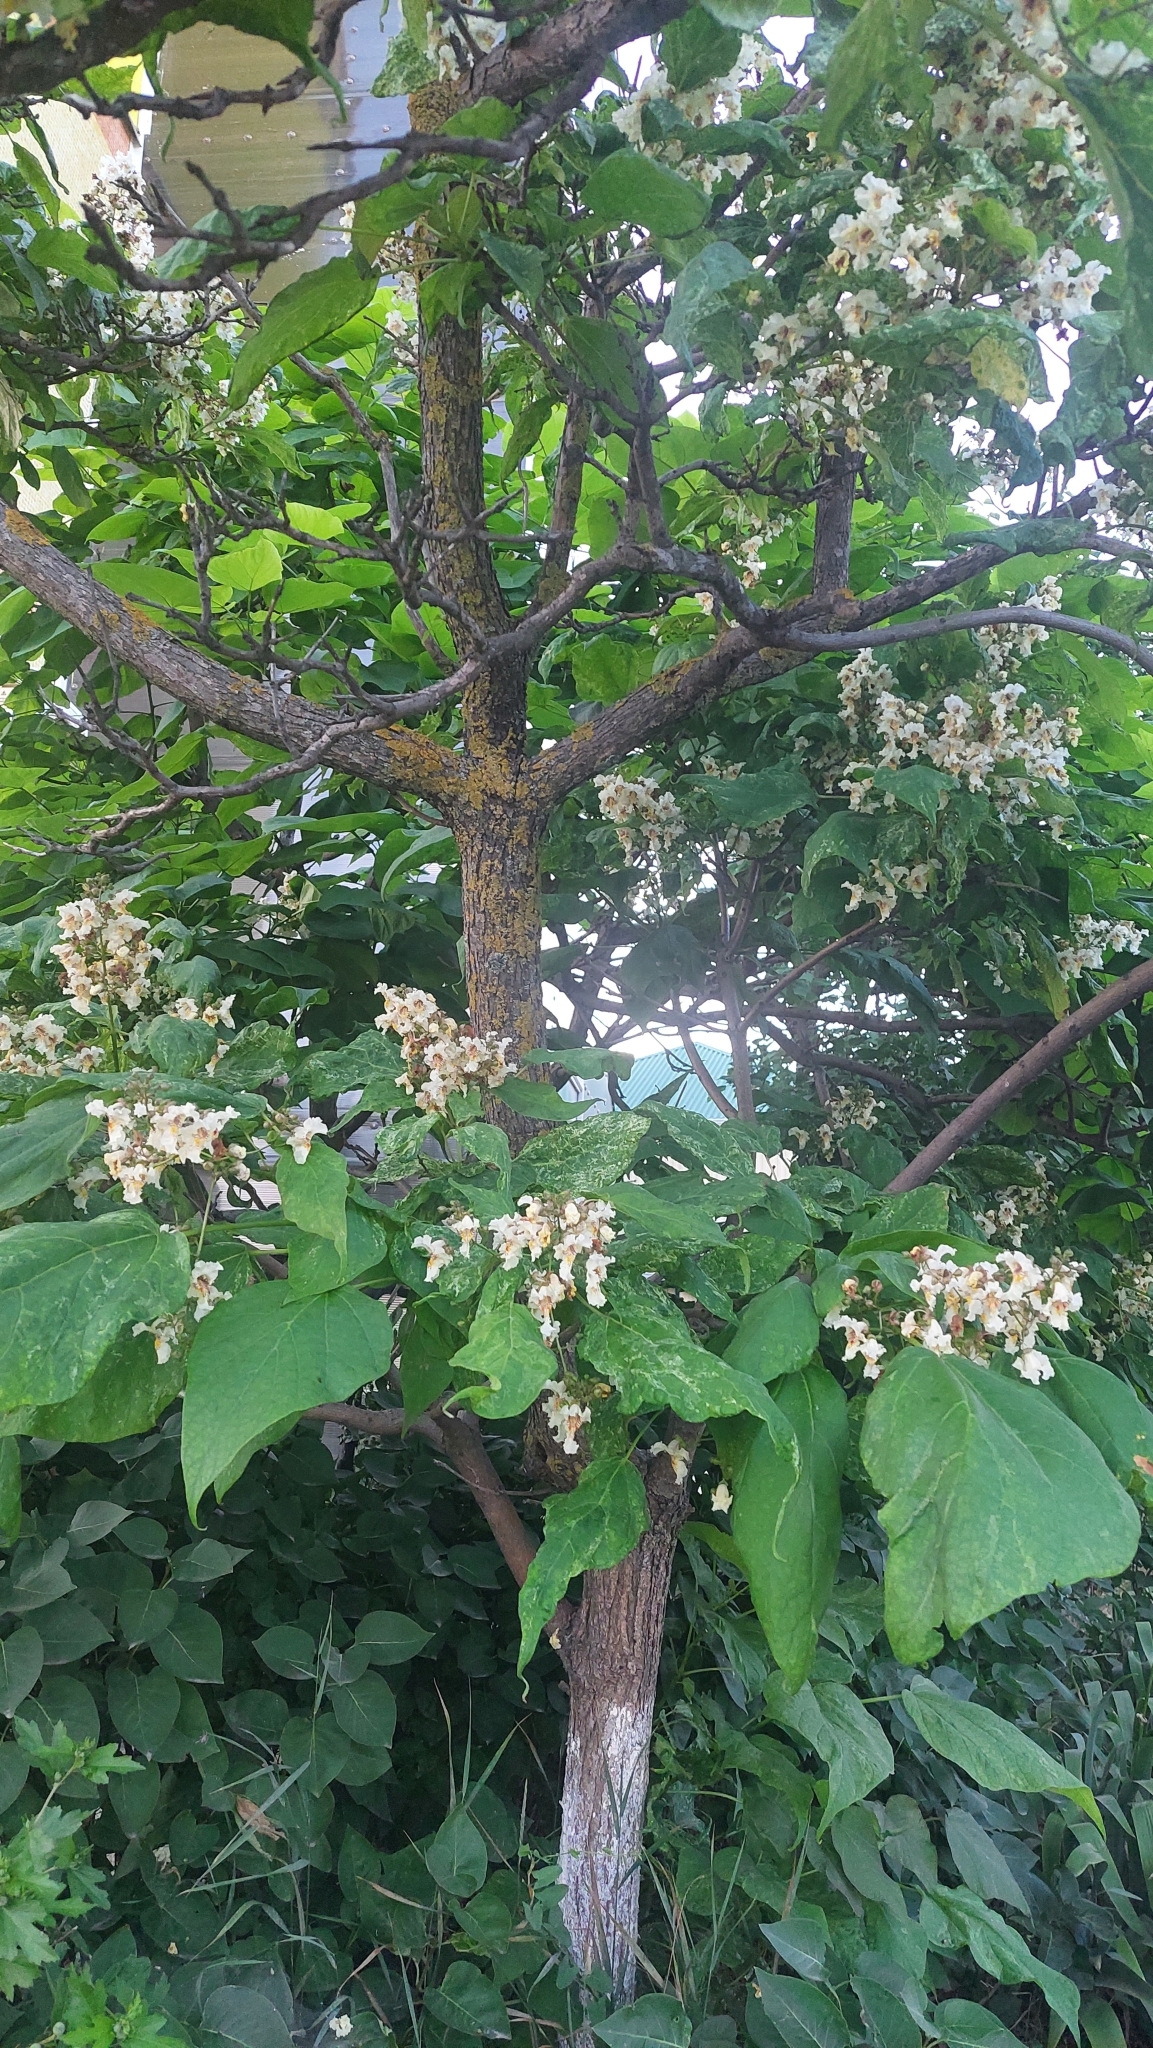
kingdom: Plantae
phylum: Tracheophyta
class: Magnoliopsida
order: Lamiales
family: Bignoniaceae
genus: Catalpa
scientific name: Catalpa bignonioides
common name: Southern catalpa
